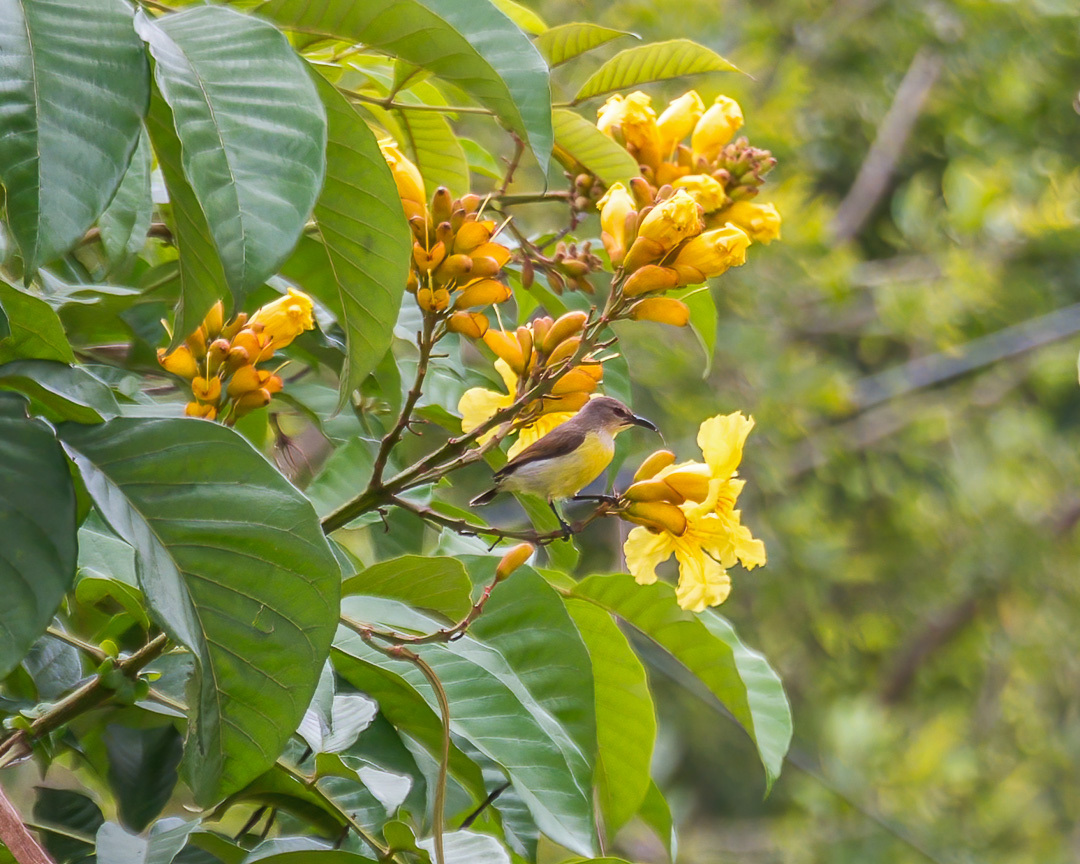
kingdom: Animalia
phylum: Chordata
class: Aves
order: Passeriformes
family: Nectariniidae
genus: Leptocoma
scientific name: Leptocoma zeylonica
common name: Purple-rumped sunbird
